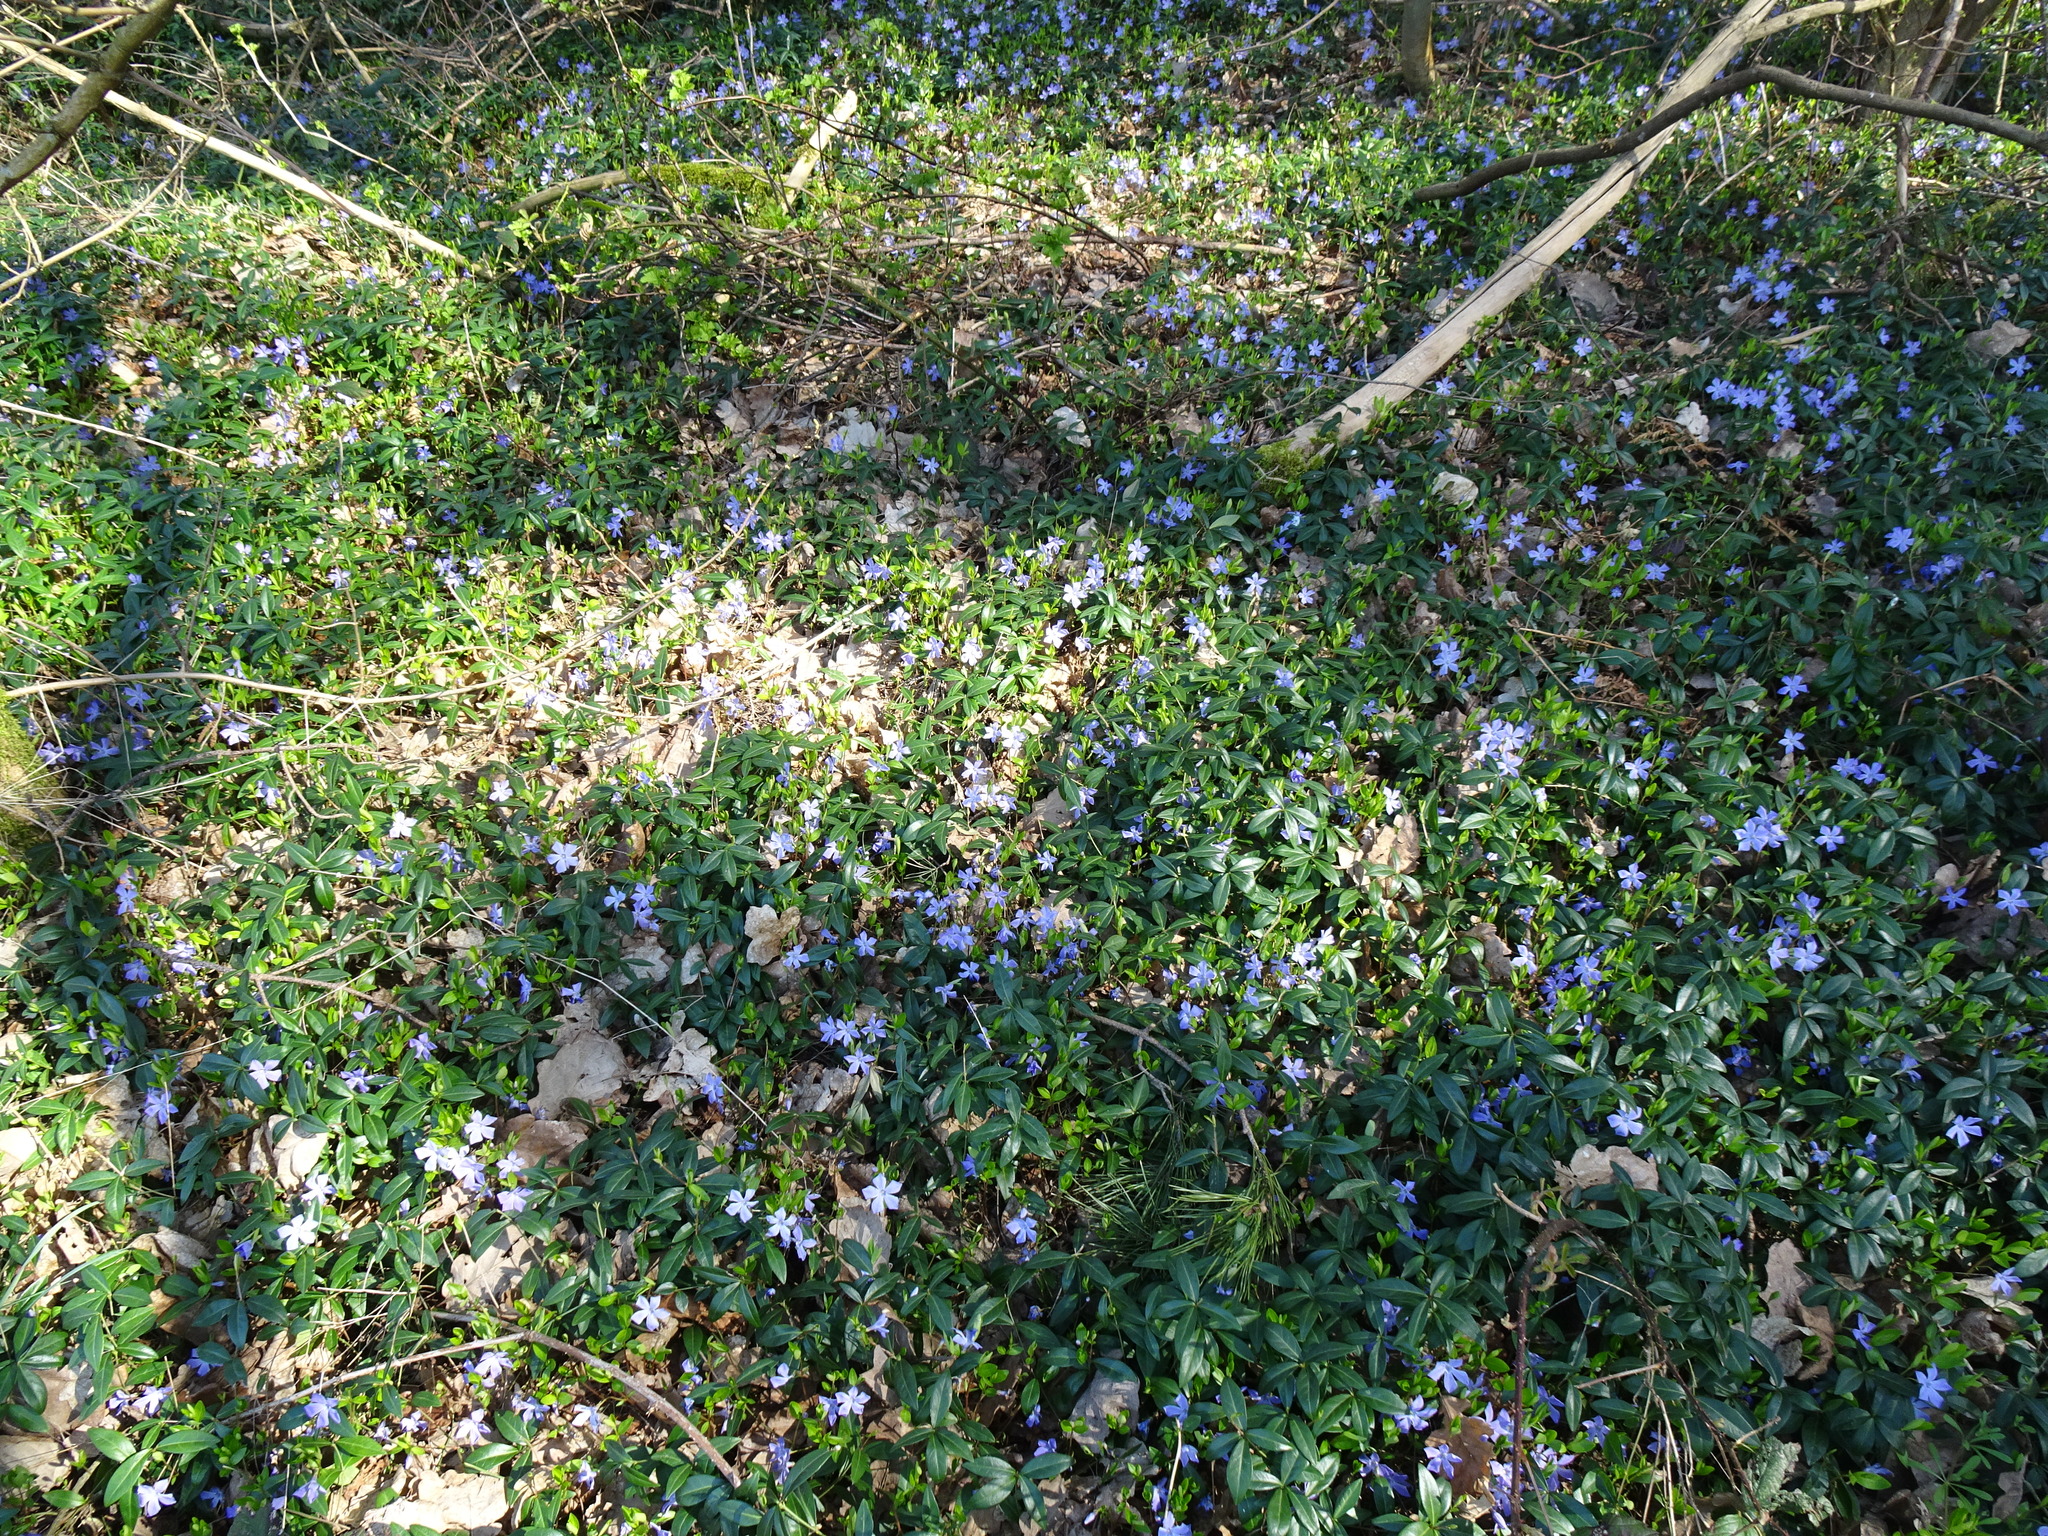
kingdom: Plantae
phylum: Tracheophyta
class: Magnoliopsida
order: Gentianales
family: Apocynaceae
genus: Vinca
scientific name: Vinca minor
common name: Lesser periwinkle
